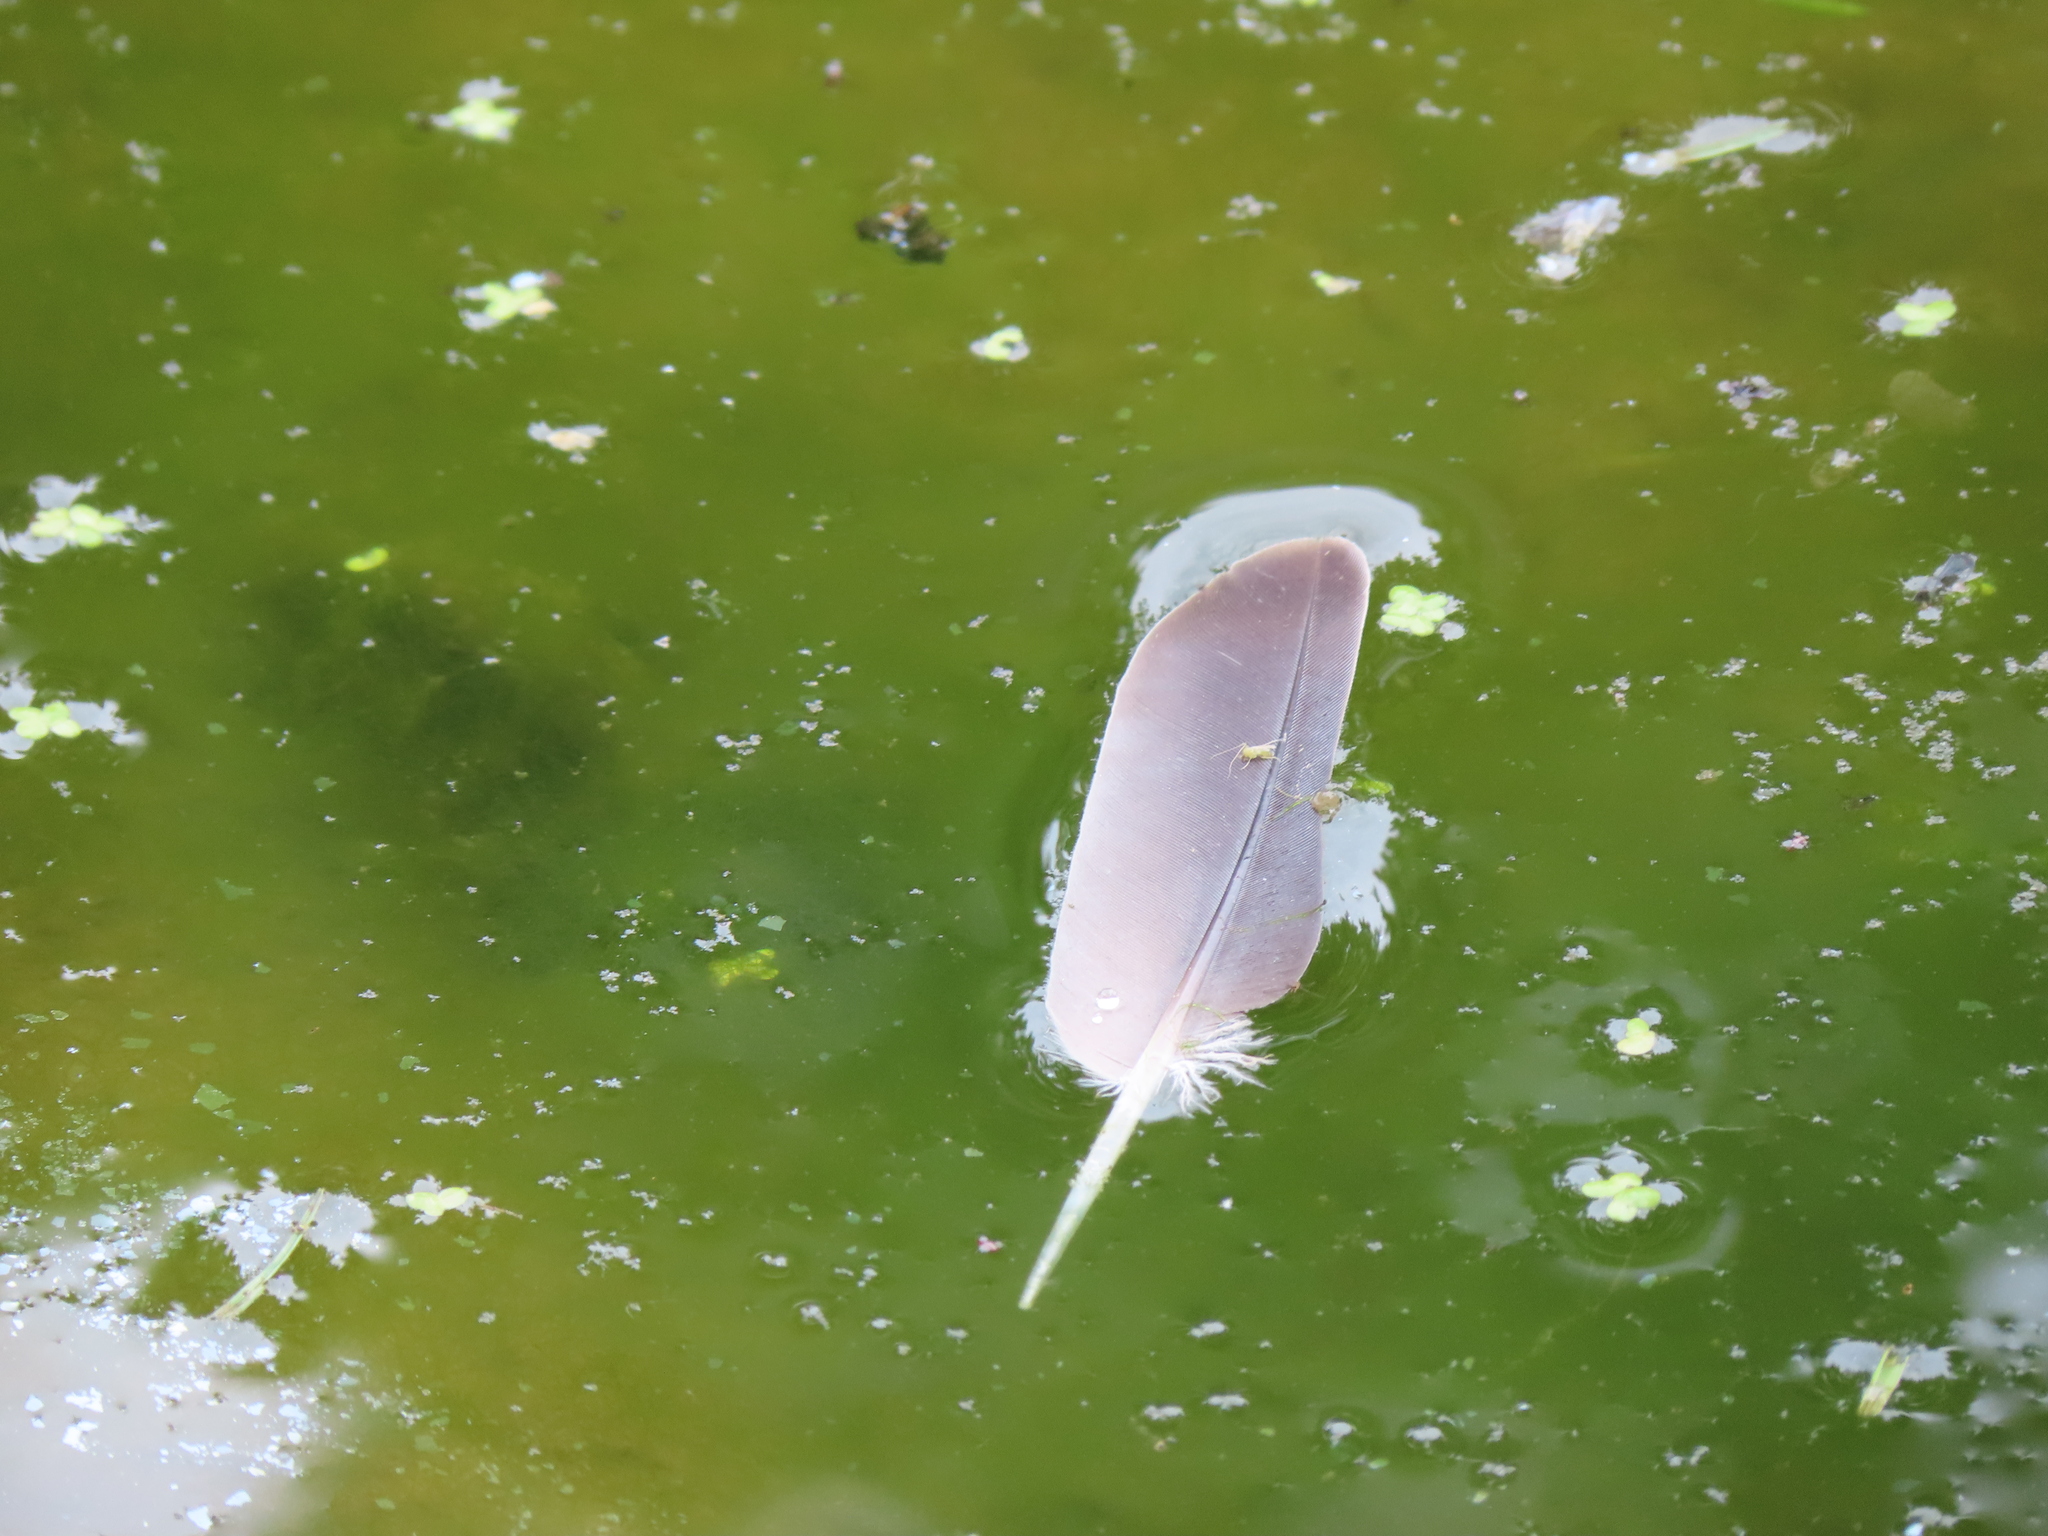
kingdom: Animalia
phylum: Chordata
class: Aves
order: Columbiformes
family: Columbidae
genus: Zenaida
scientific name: Zenaida macroura
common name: Mourning dove
